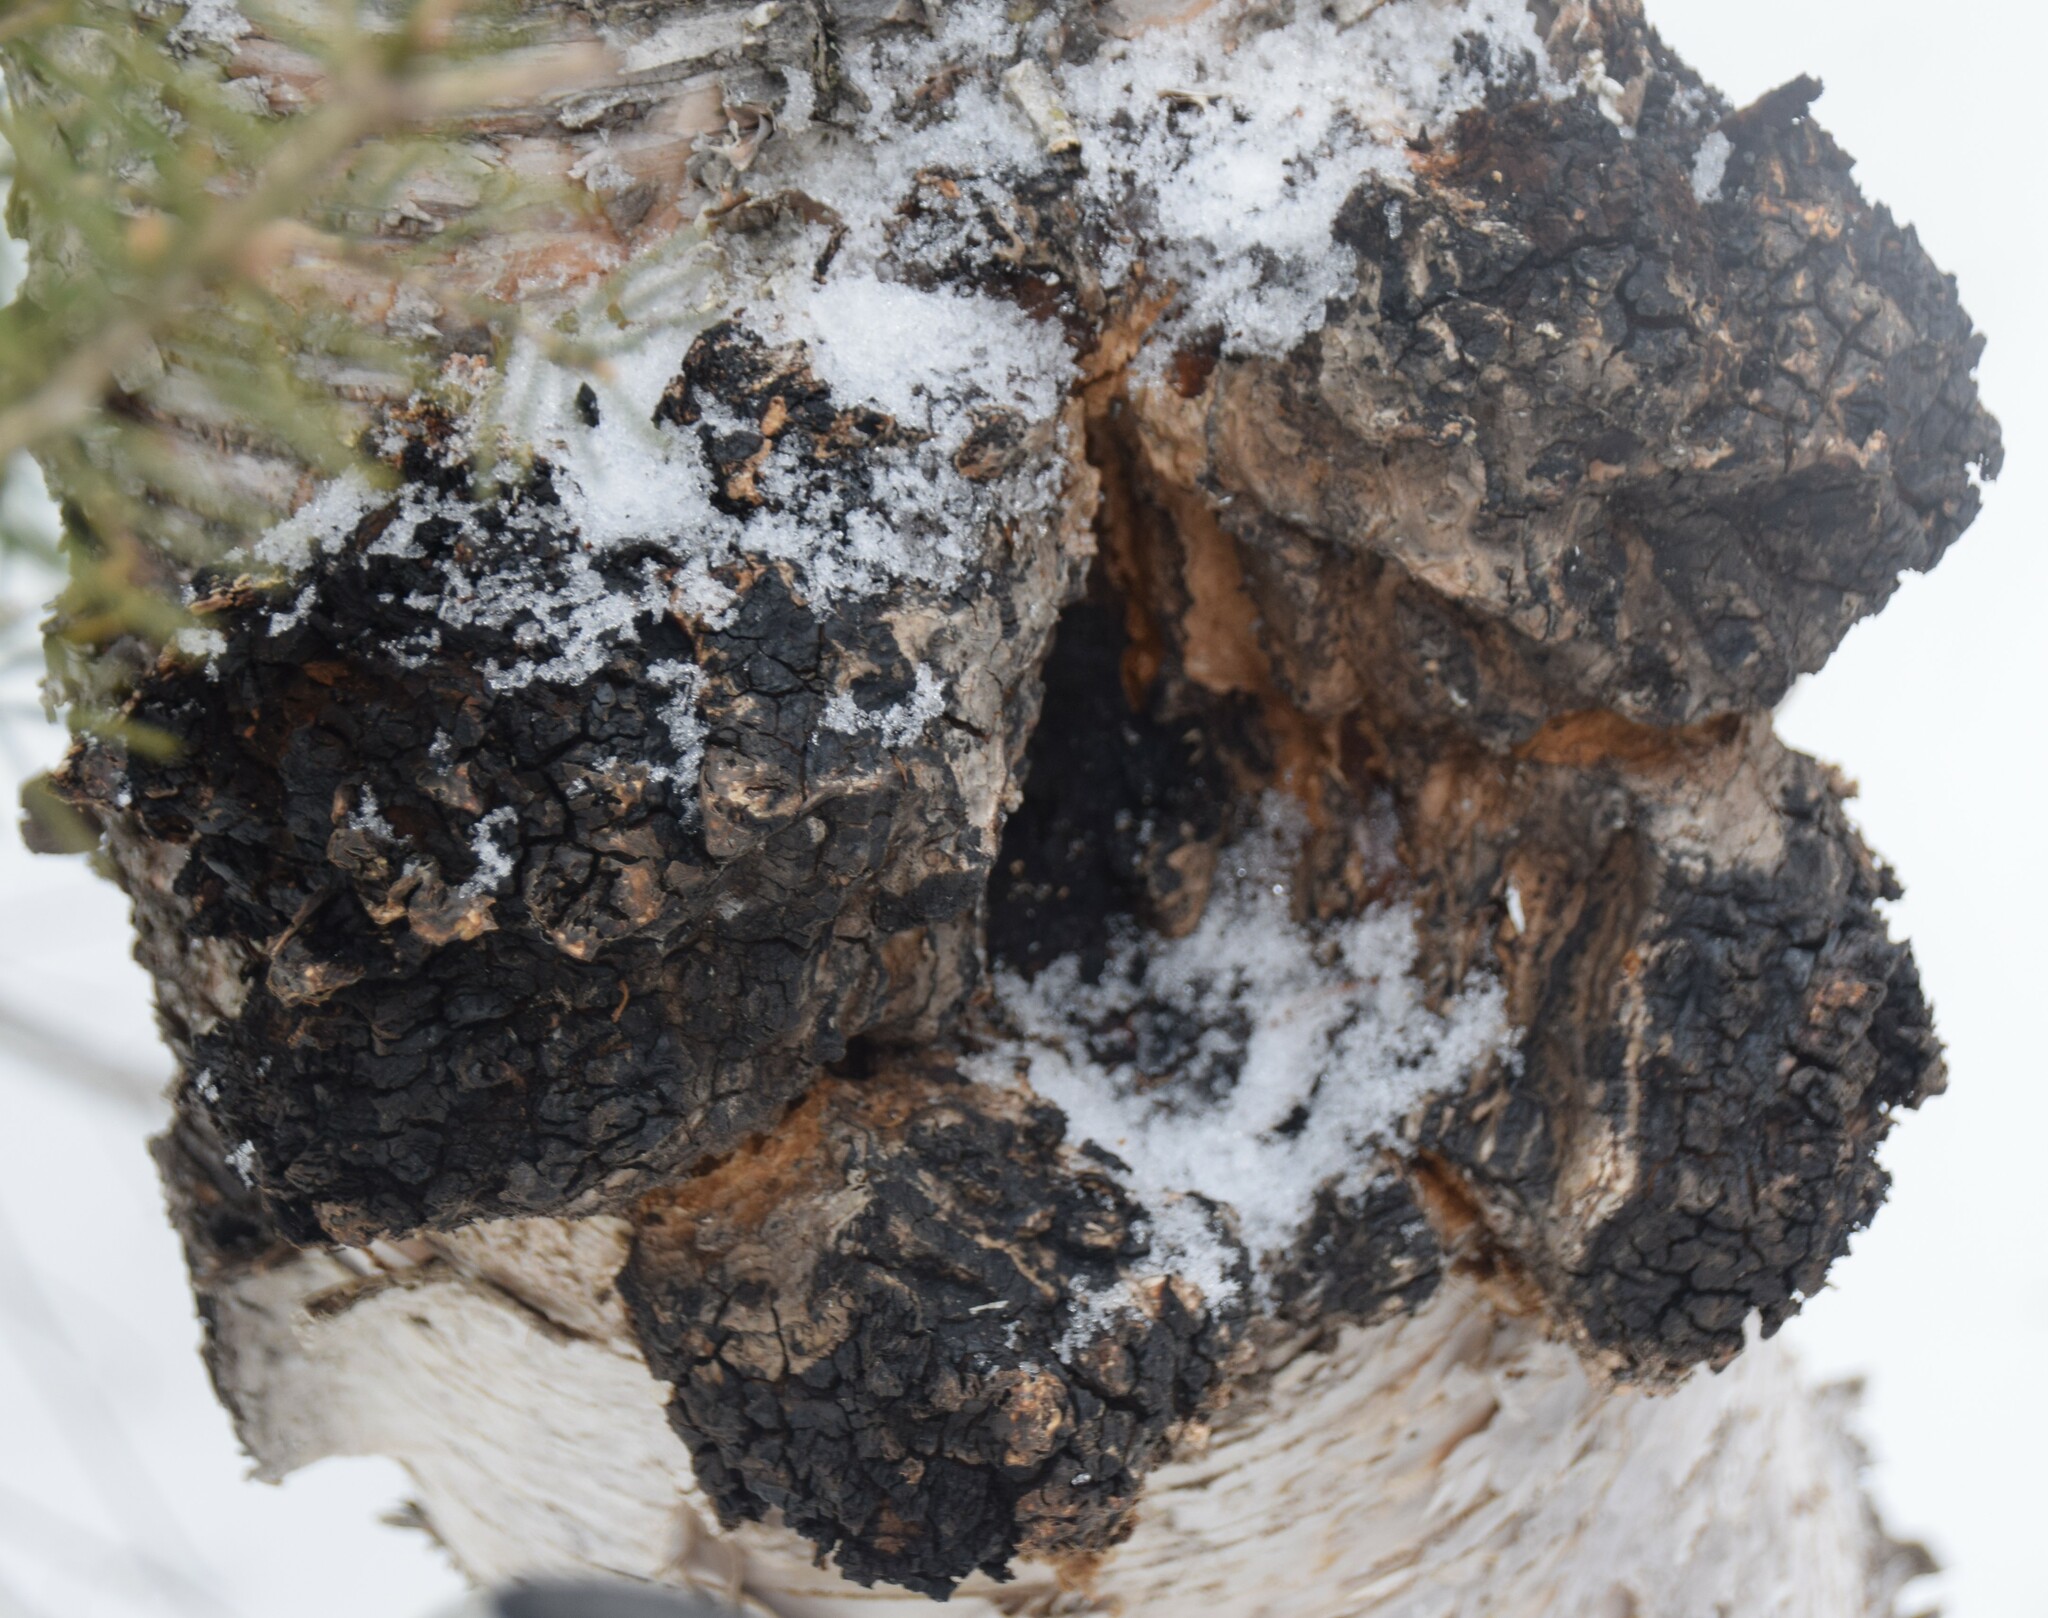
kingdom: Fungi
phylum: Basidiomycota
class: Agaricomycetes
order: Hymenochaetales
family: Hymenochaetaceae
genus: Inonotus
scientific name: Inonotus obliquus
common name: Chaga
